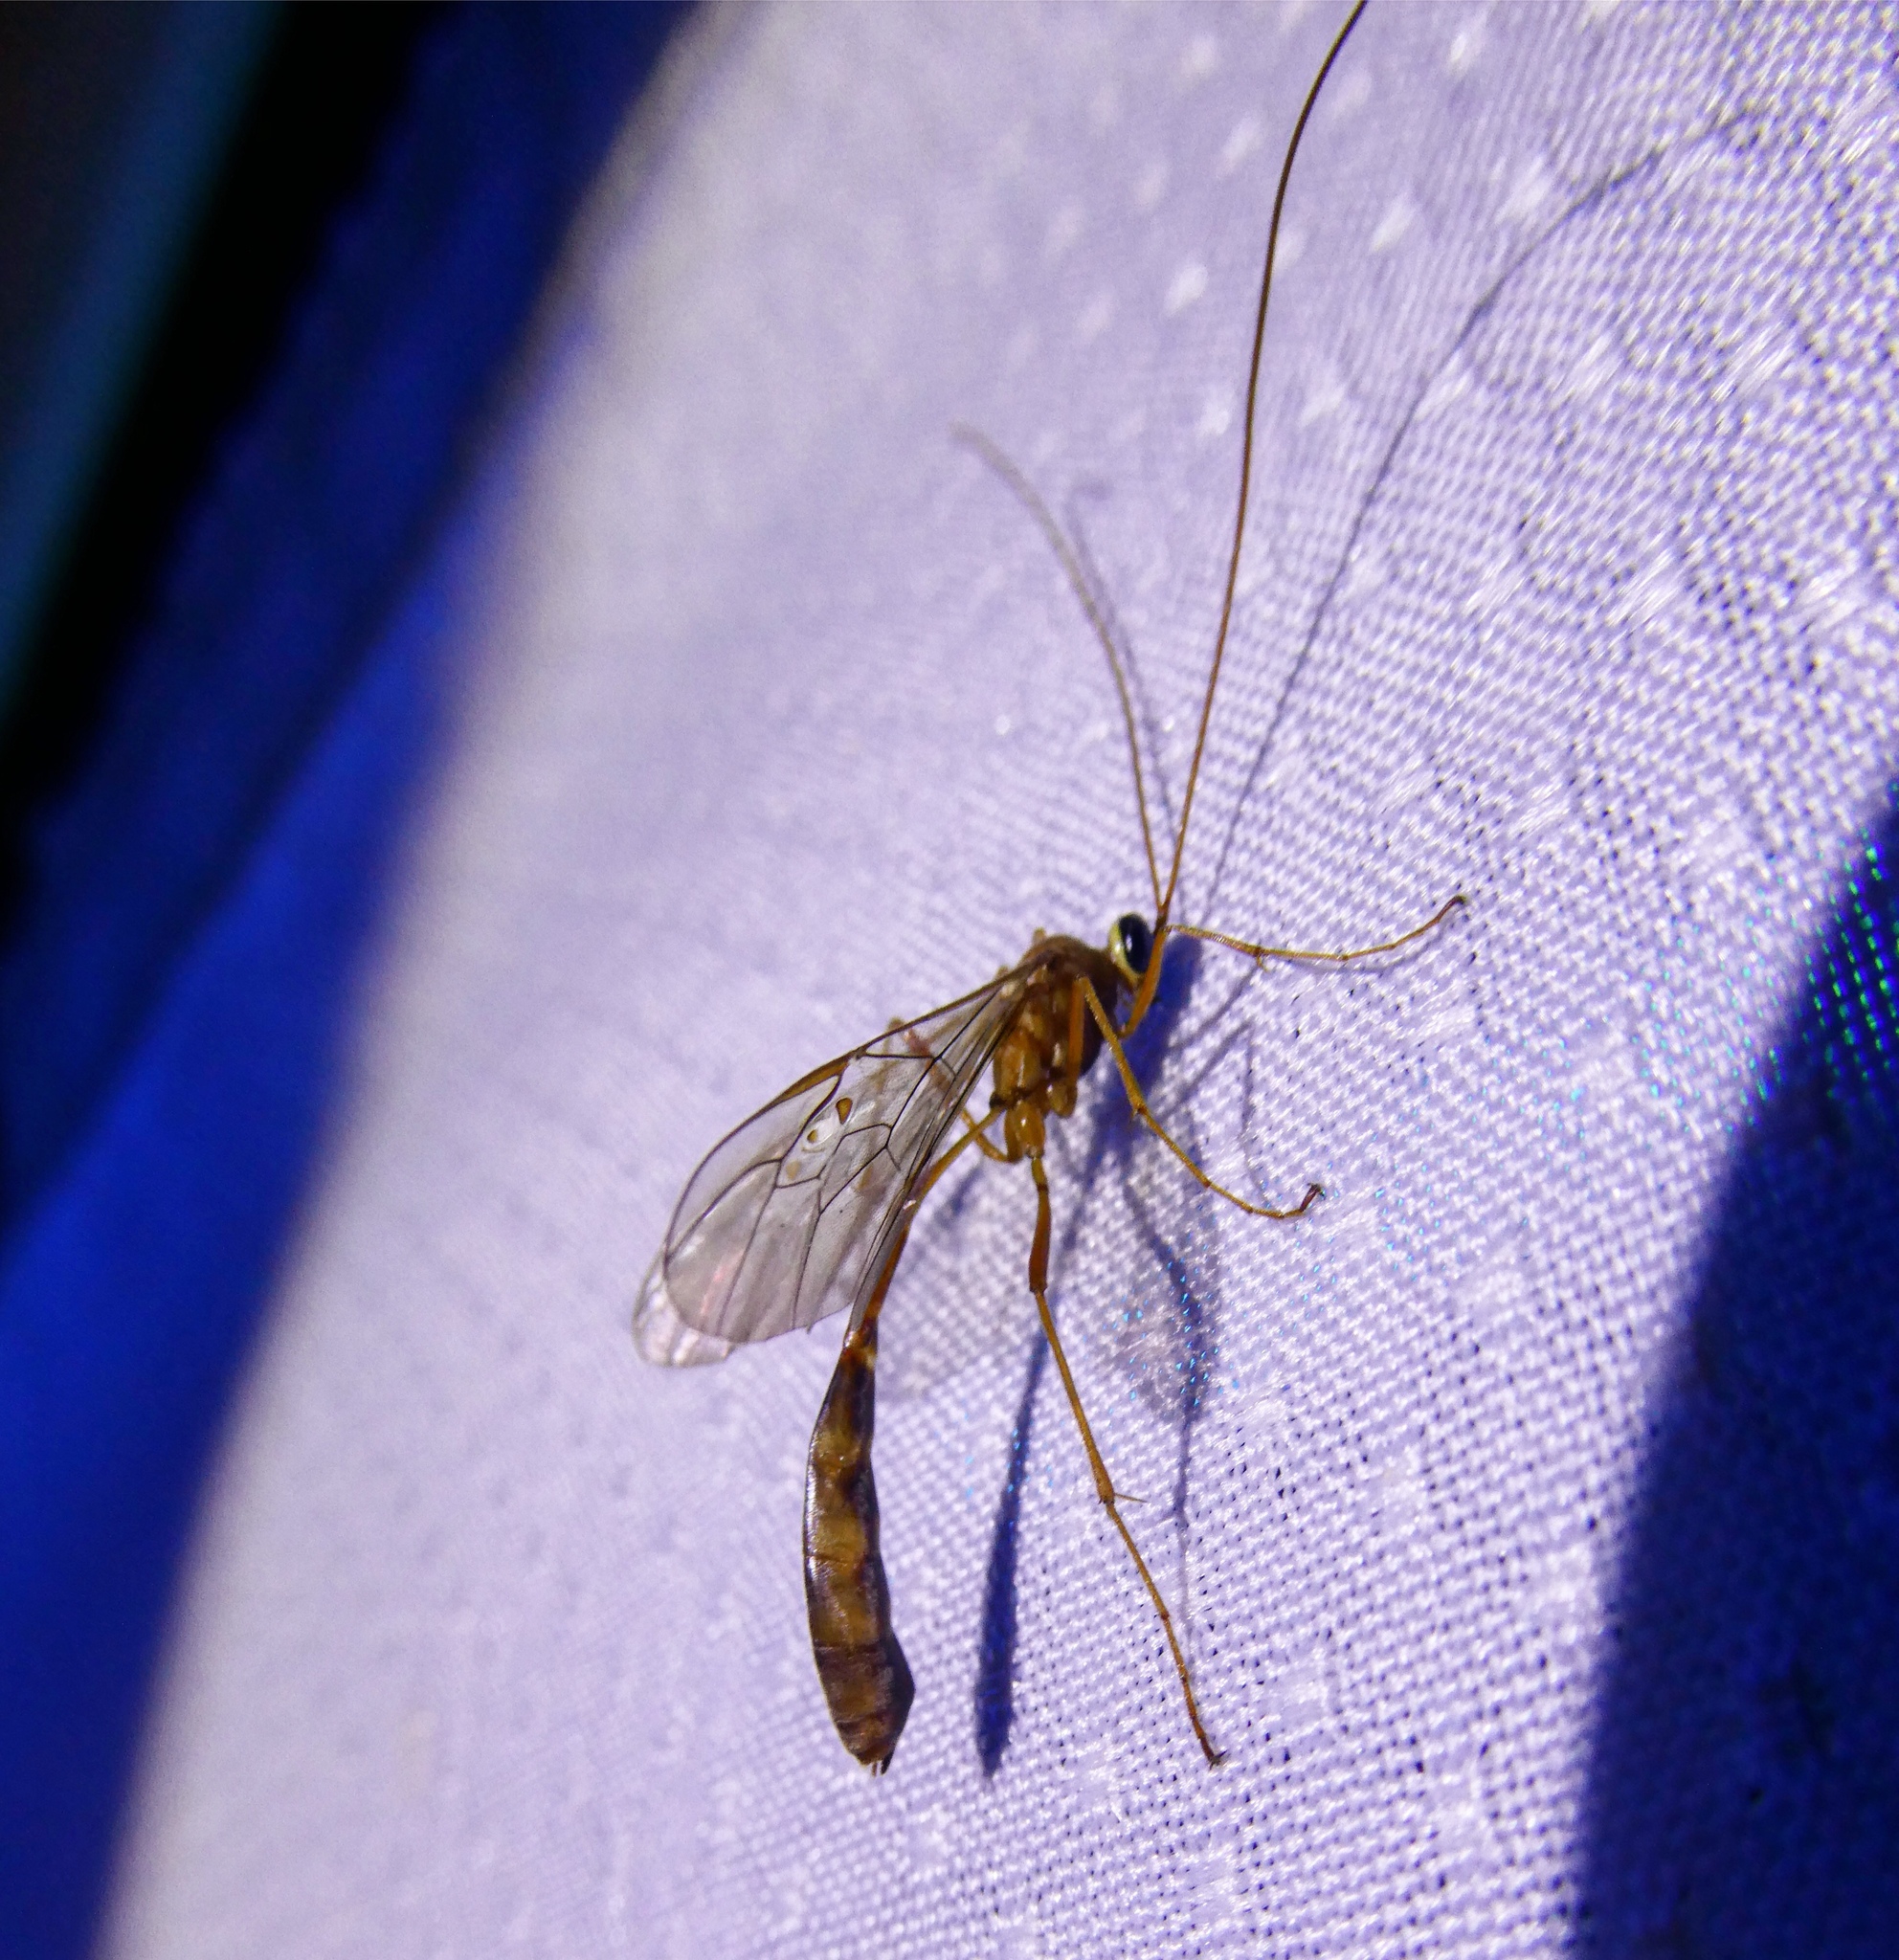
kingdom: Animalia
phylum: Arthropoda
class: Insecta
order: Hymenoptera
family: Ichneumonidae
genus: Enicospilus
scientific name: Enicospilus purgatus
